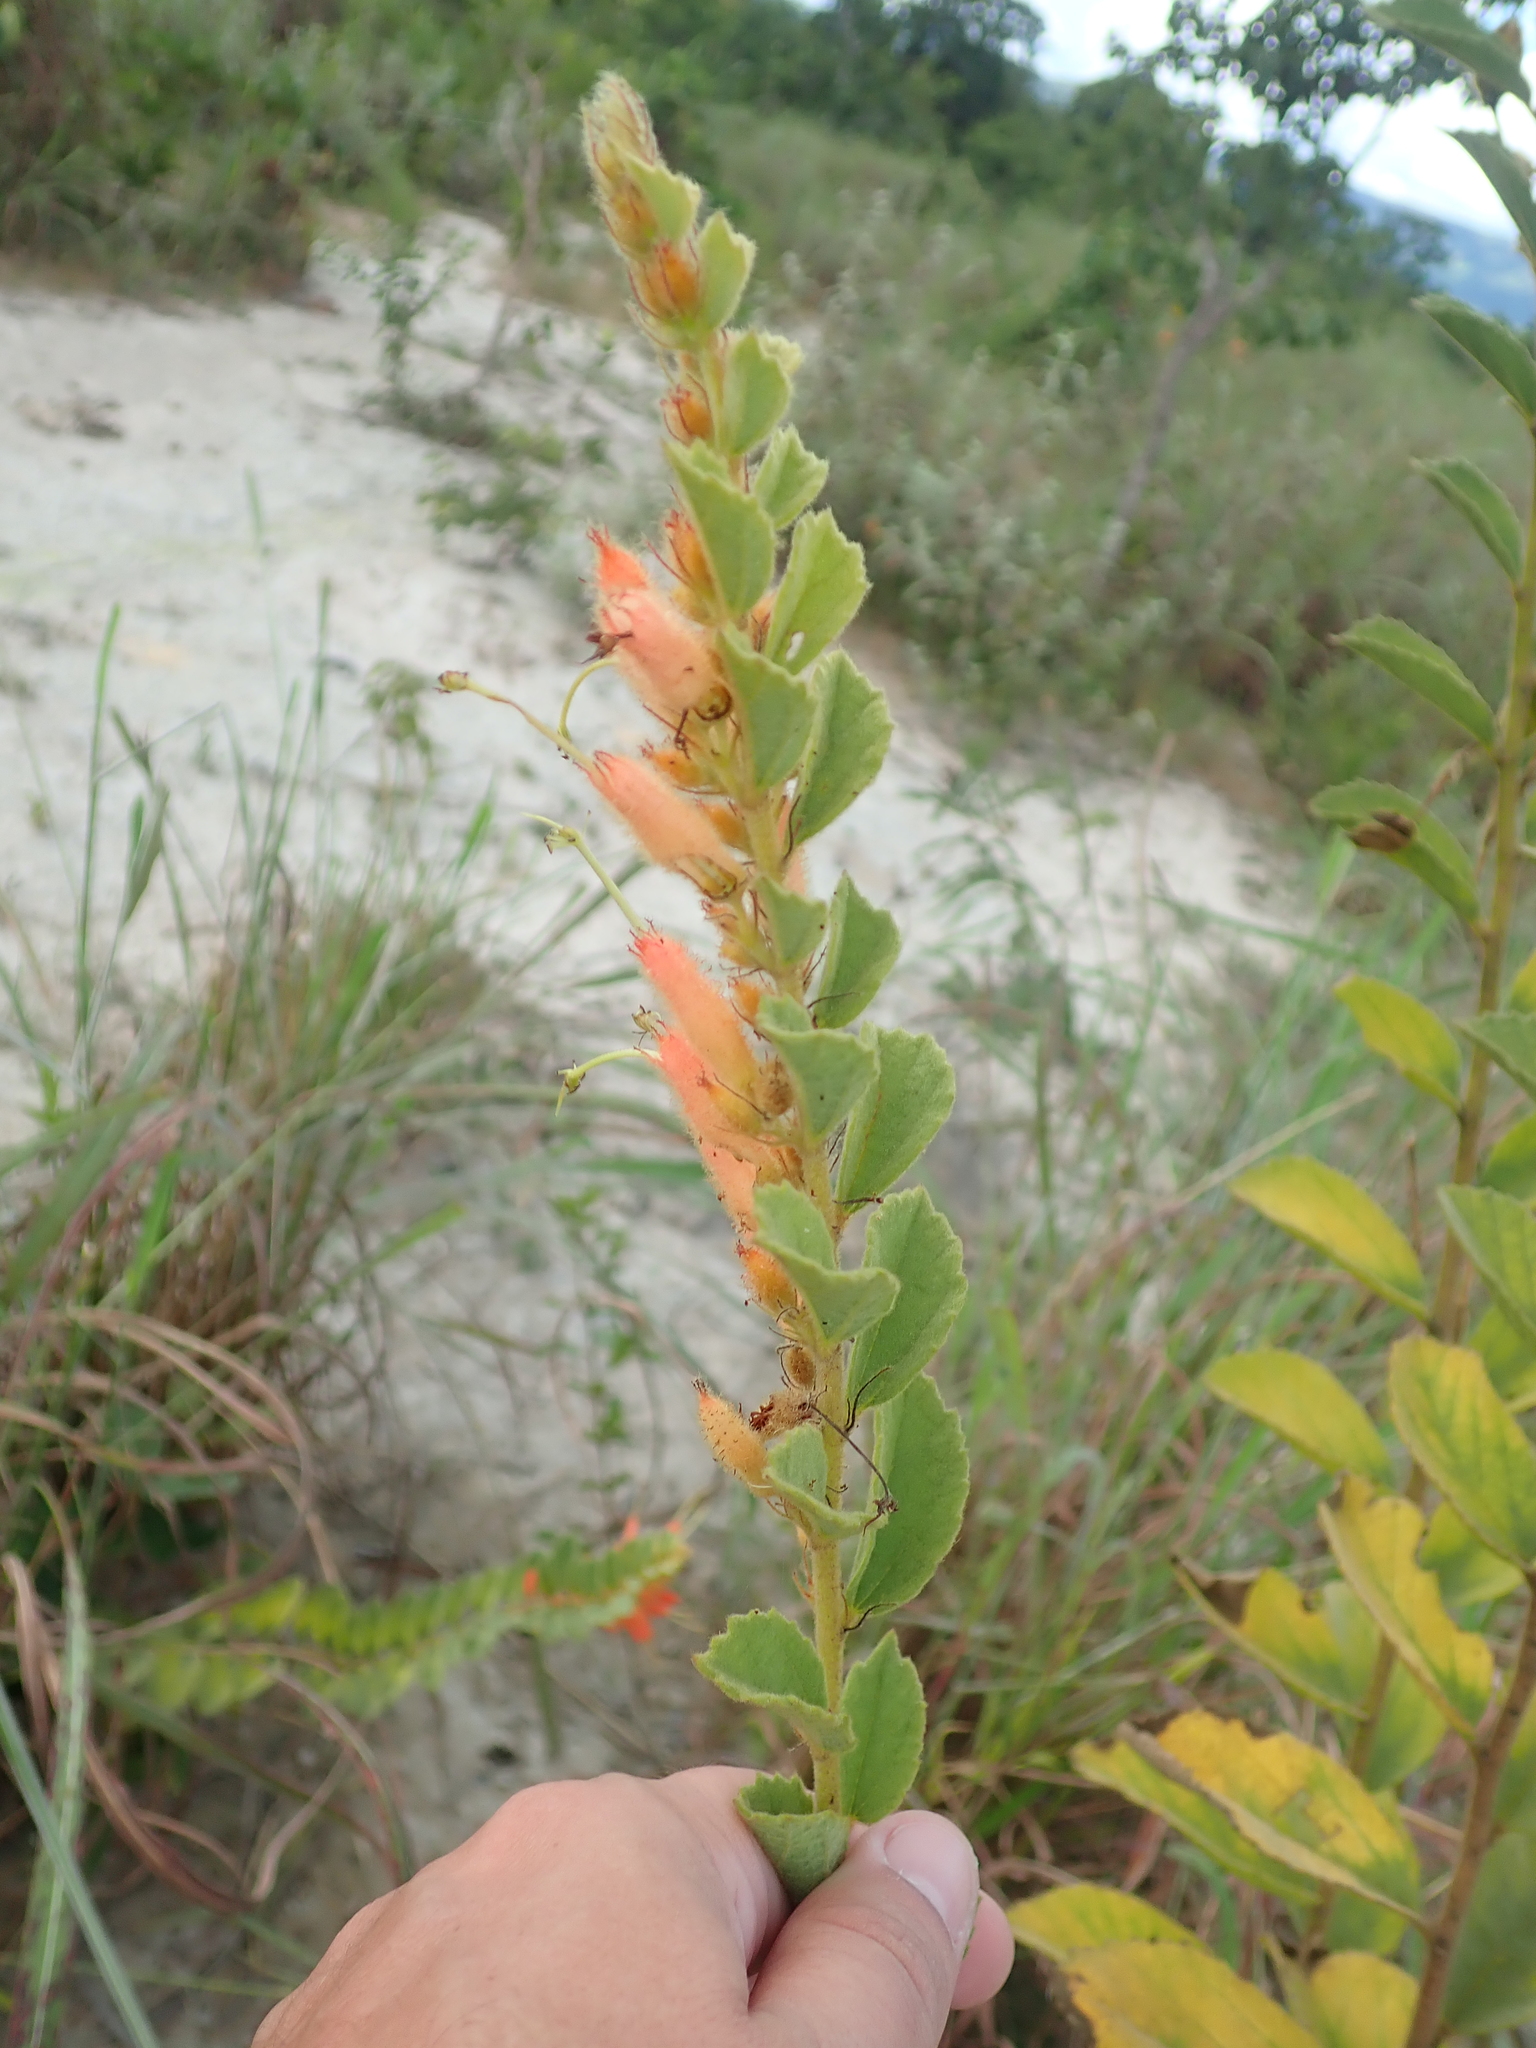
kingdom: Plantae
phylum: Tracheophyta
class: Magnoliopsida
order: Malvales
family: Malvaceae
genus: Helicteres
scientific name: Helicteres sacarolha
